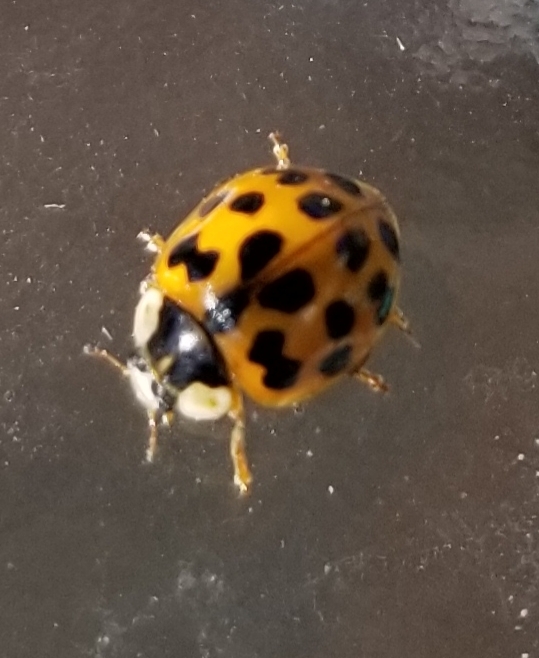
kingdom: Animalia
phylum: Arthropoda
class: Insecta
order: Coleoptera
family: Coccinellidae
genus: Harmonia
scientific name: Harmonia axyridis
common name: Harlequin ladybird
